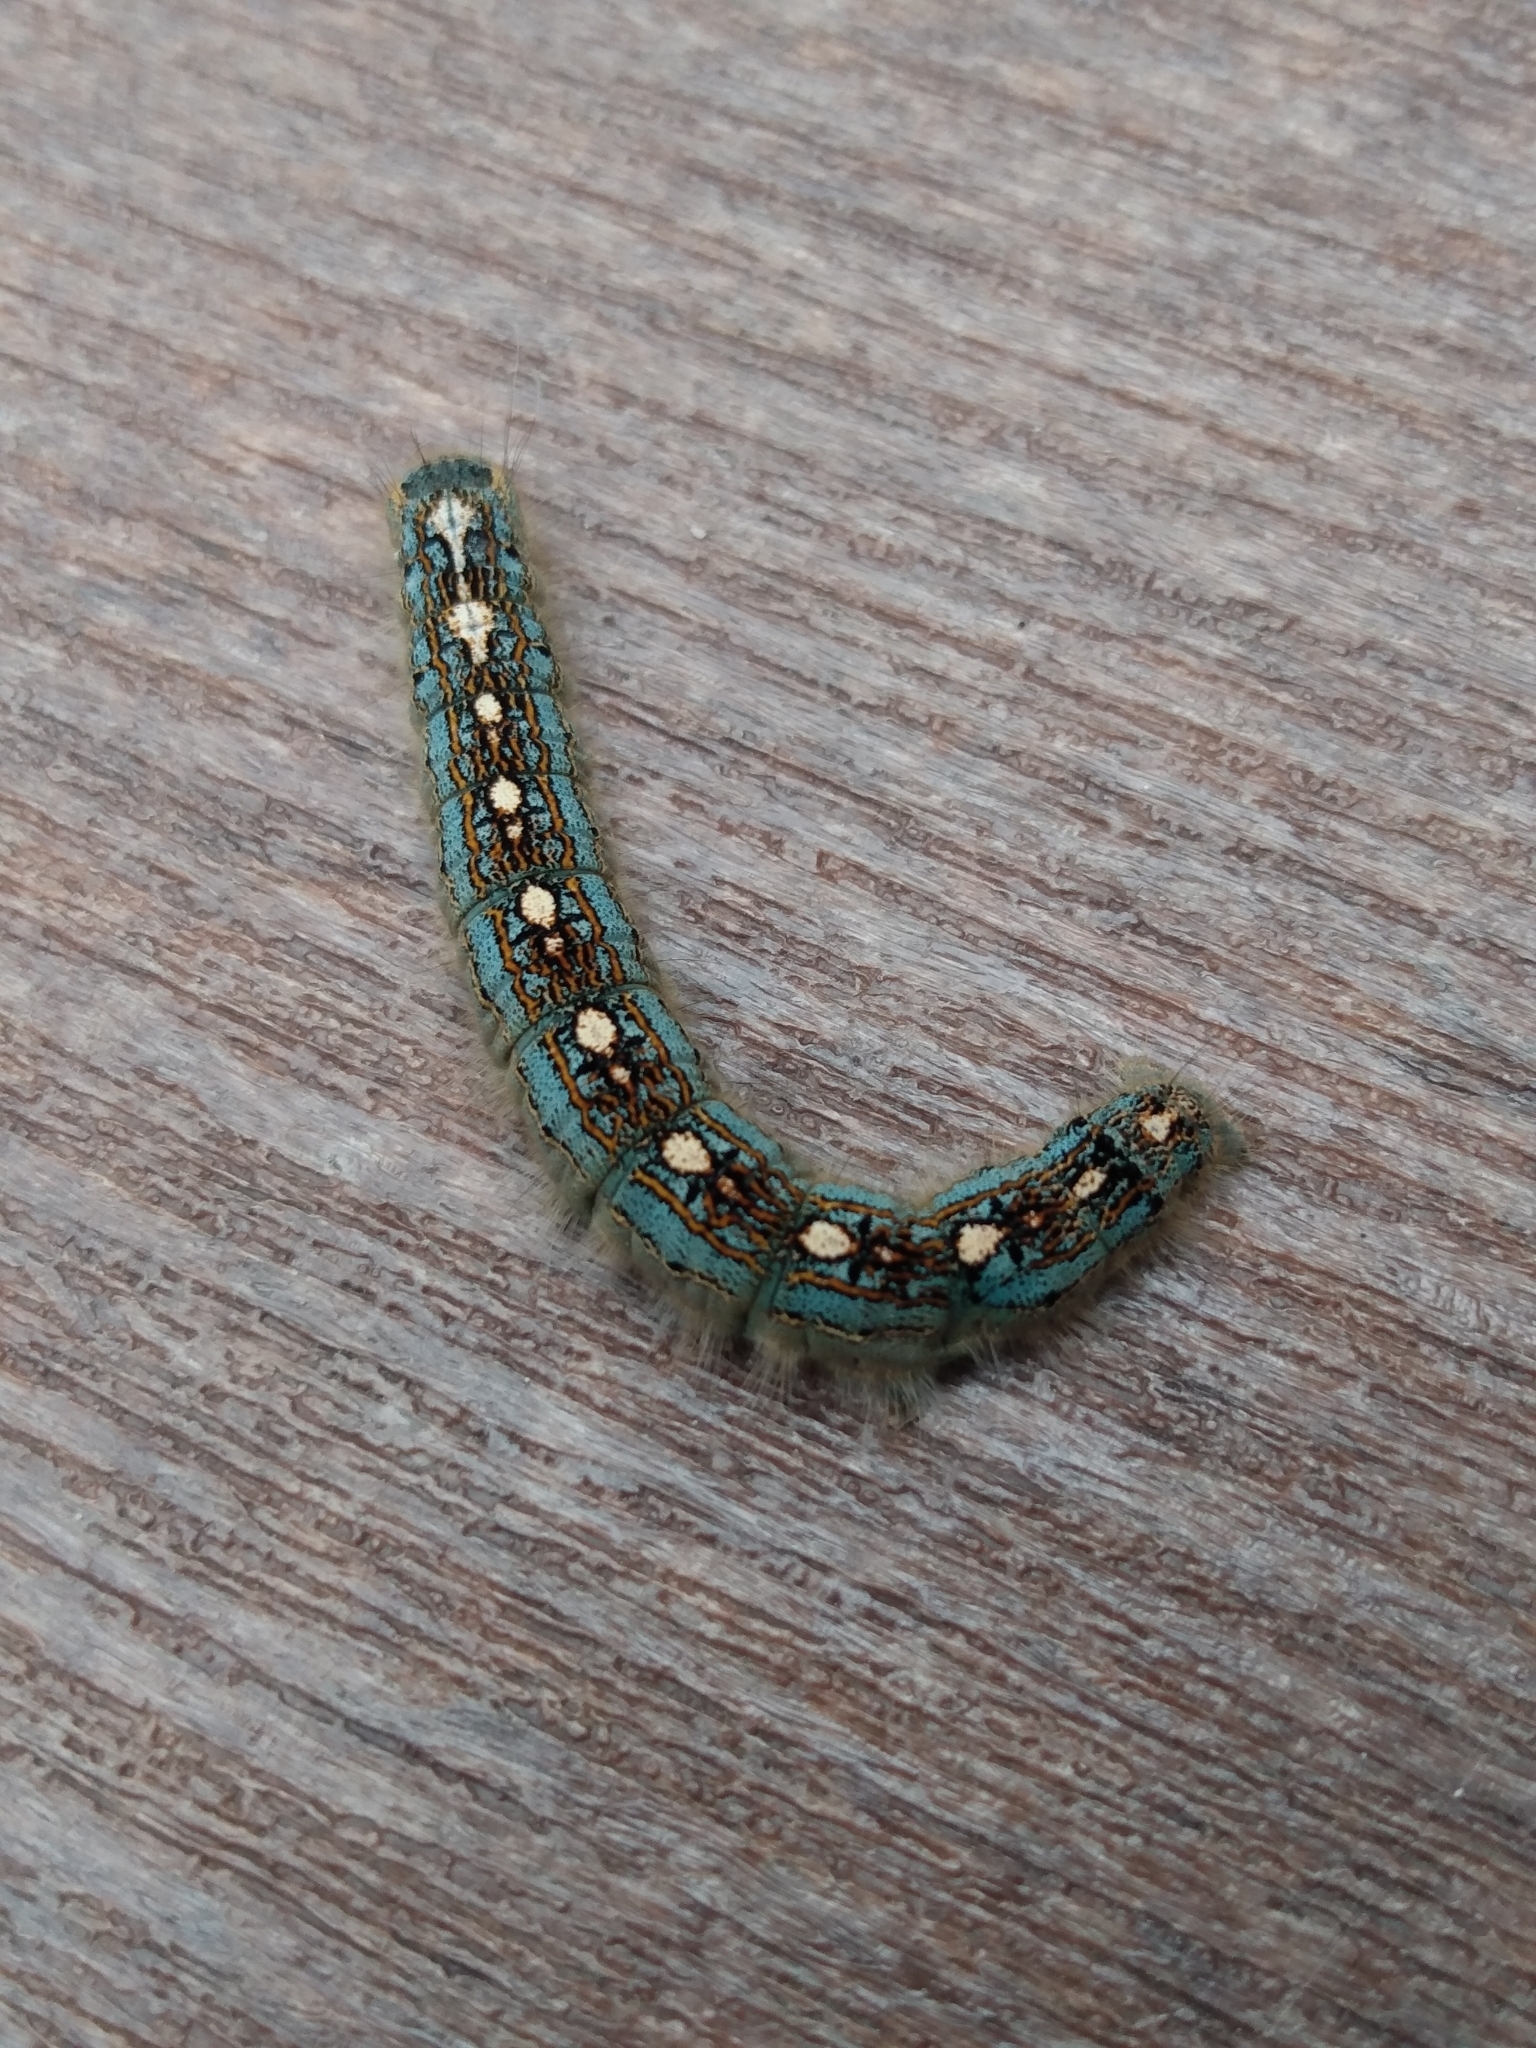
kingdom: Animalia
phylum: Arthropoda
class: Insecta
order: Lepidoptera
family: Lasiocampidae
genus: Malacosoma
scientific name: Malacosoma disstria
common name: Forest tent caterpillar
